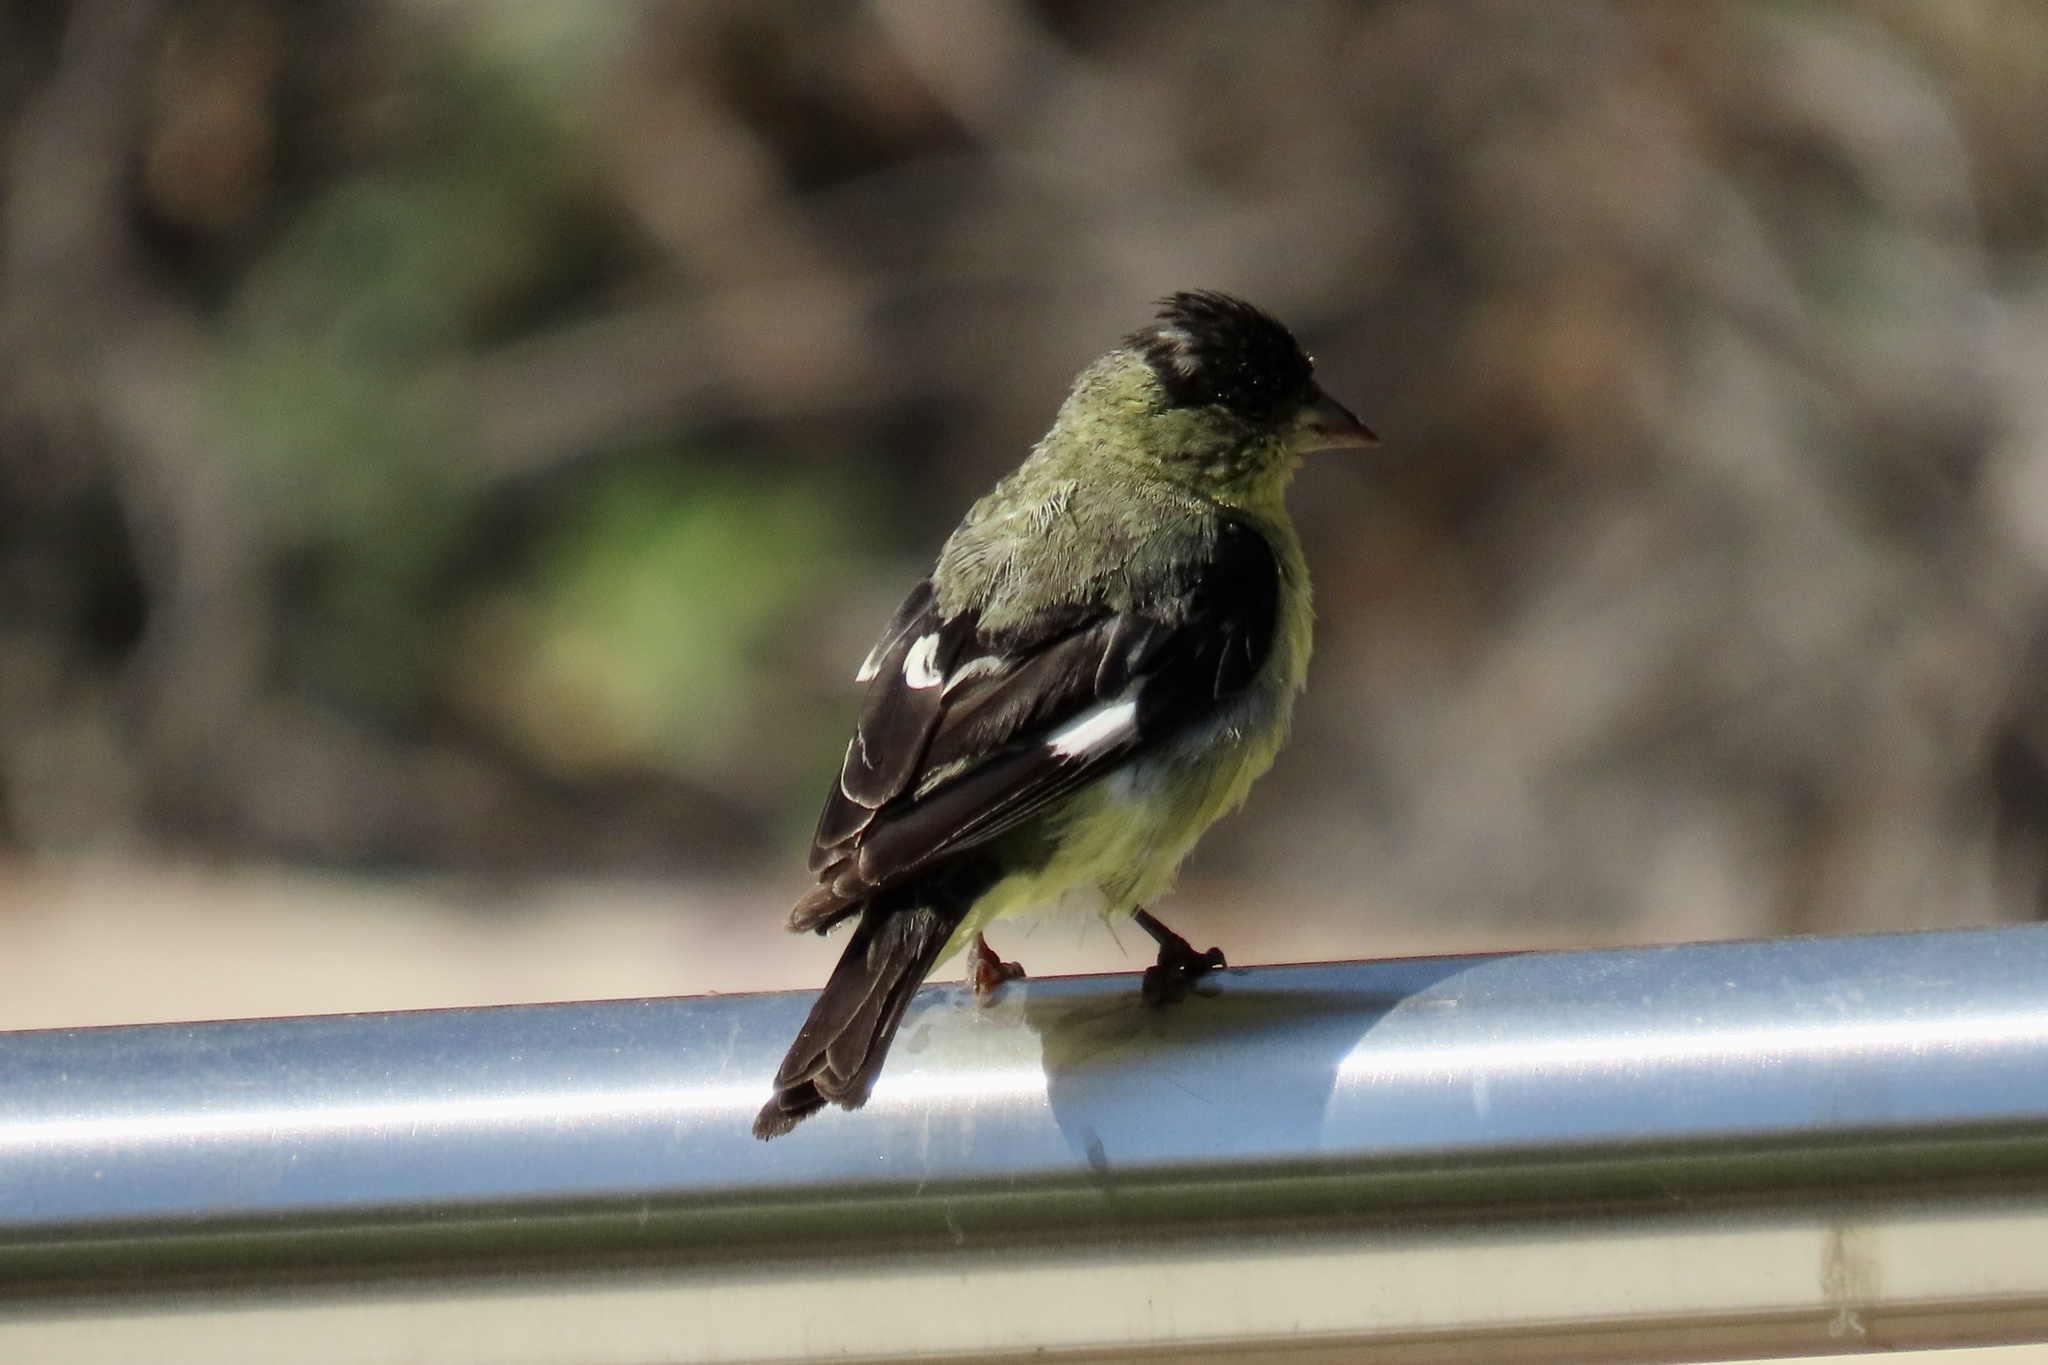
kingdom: Animalia
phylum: Chordata
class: Aves
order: Passeriformes
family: Fringillidae
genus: Spinus
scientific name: Spinus psaltria
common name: Lesser goldfinch
